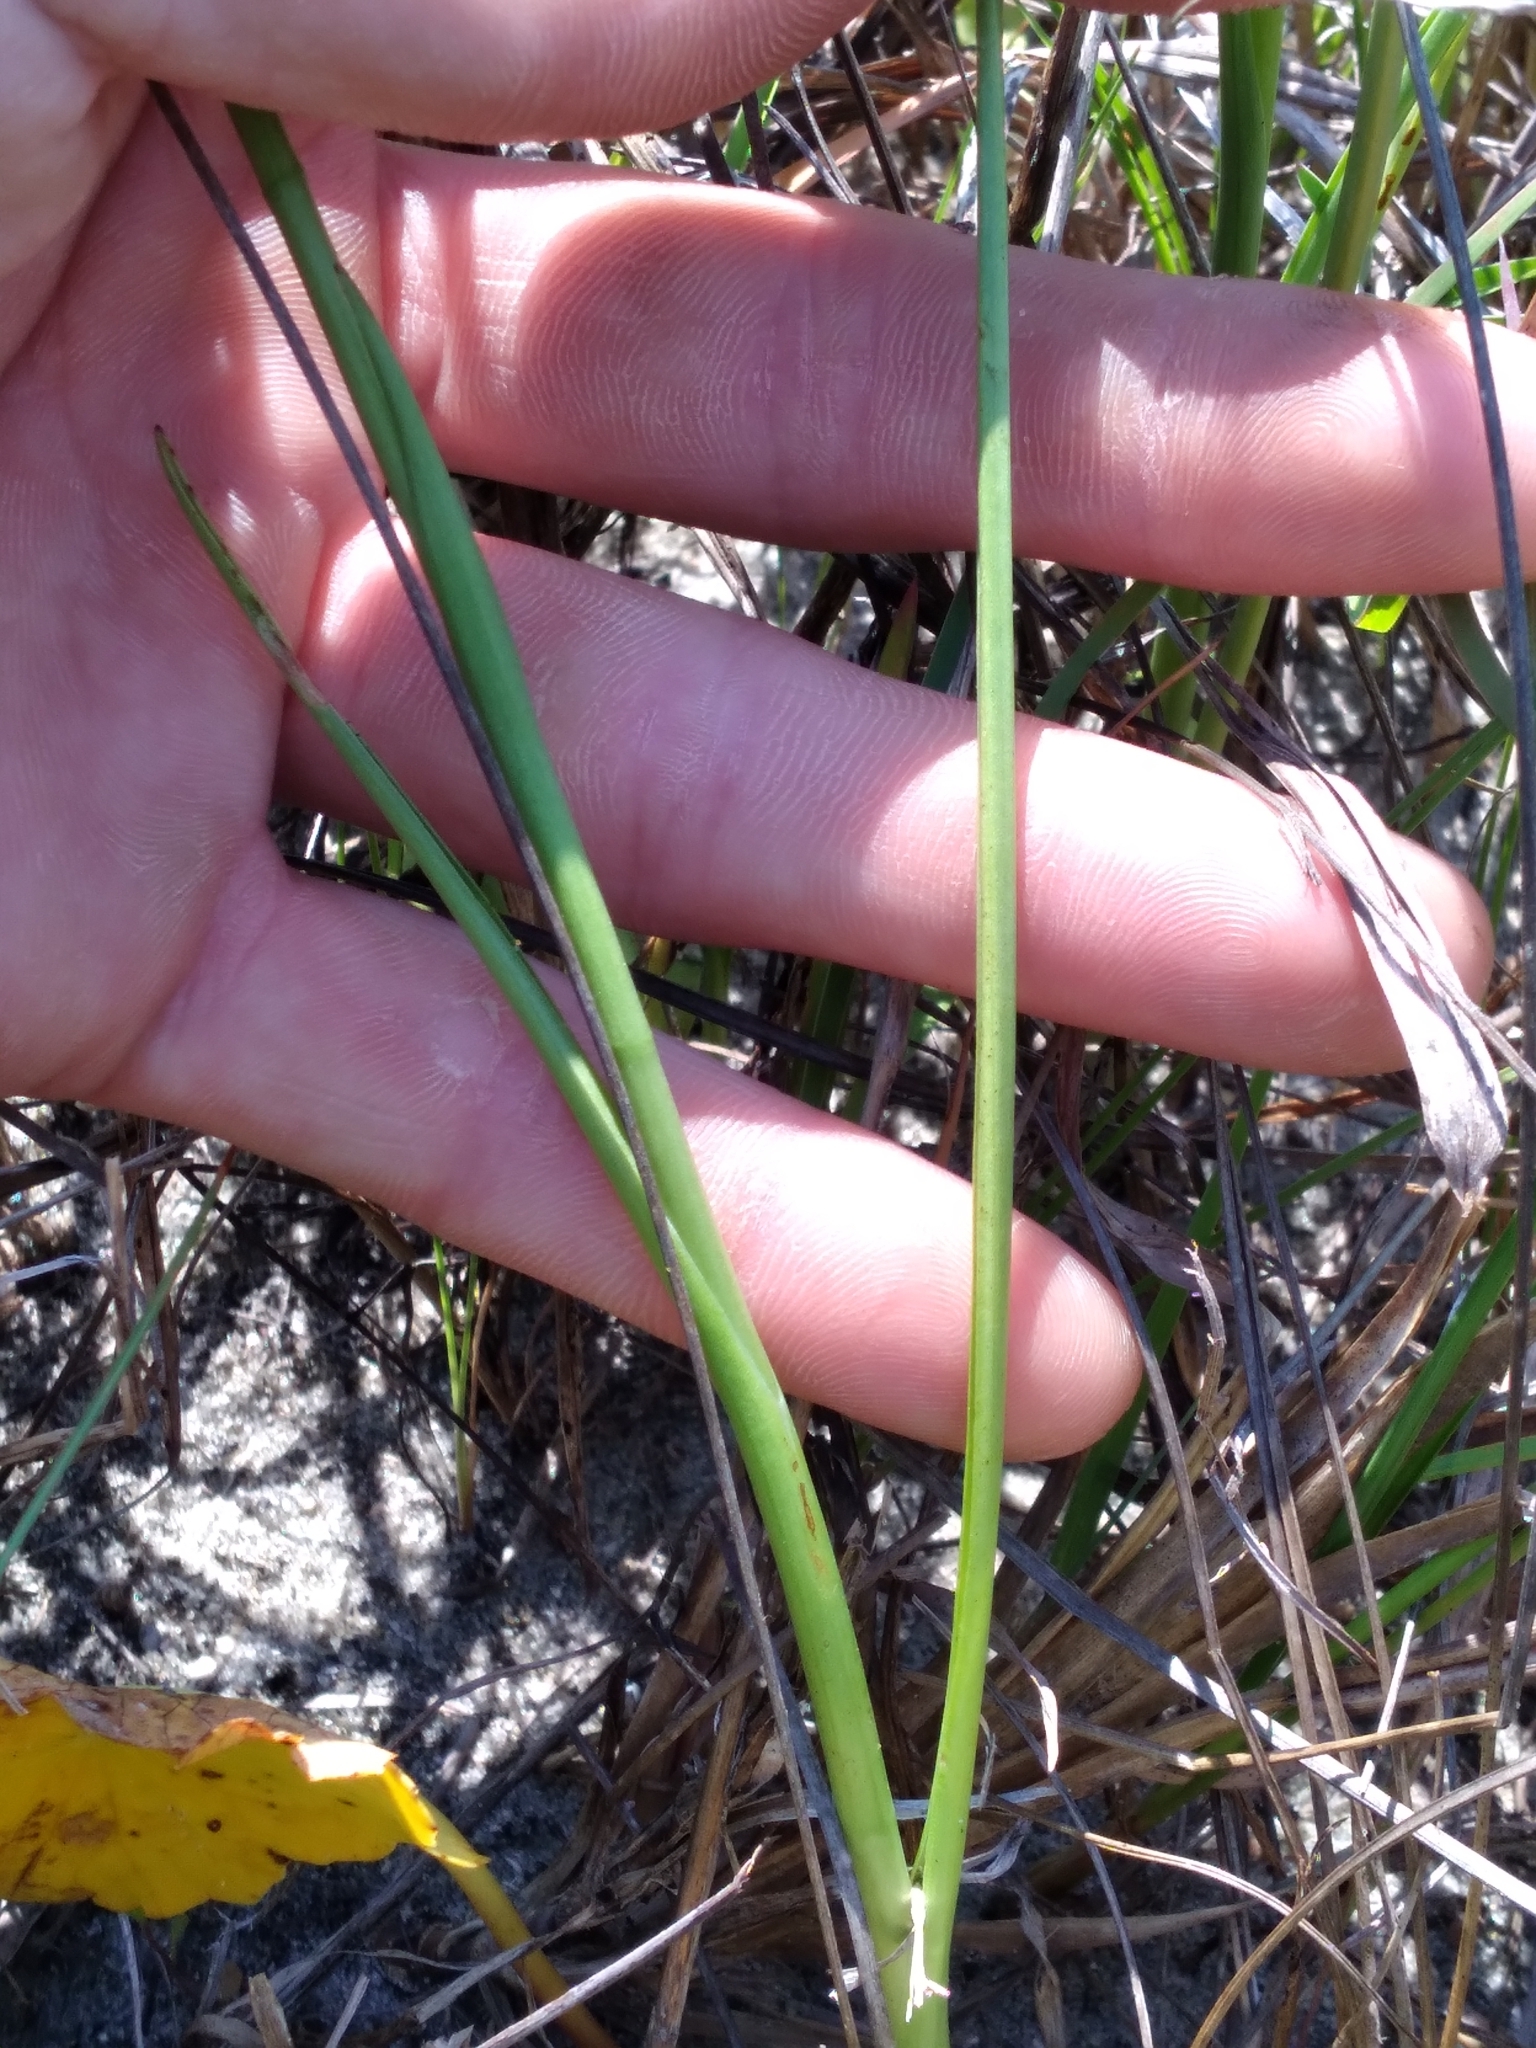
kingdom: Plantae
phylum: Tracheophyta
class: Liliopsida
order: Asparagales
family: Orchidaceae
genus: Spiranthes
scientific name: Spiranthes vernalis
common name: Spring ladies'-tresses
